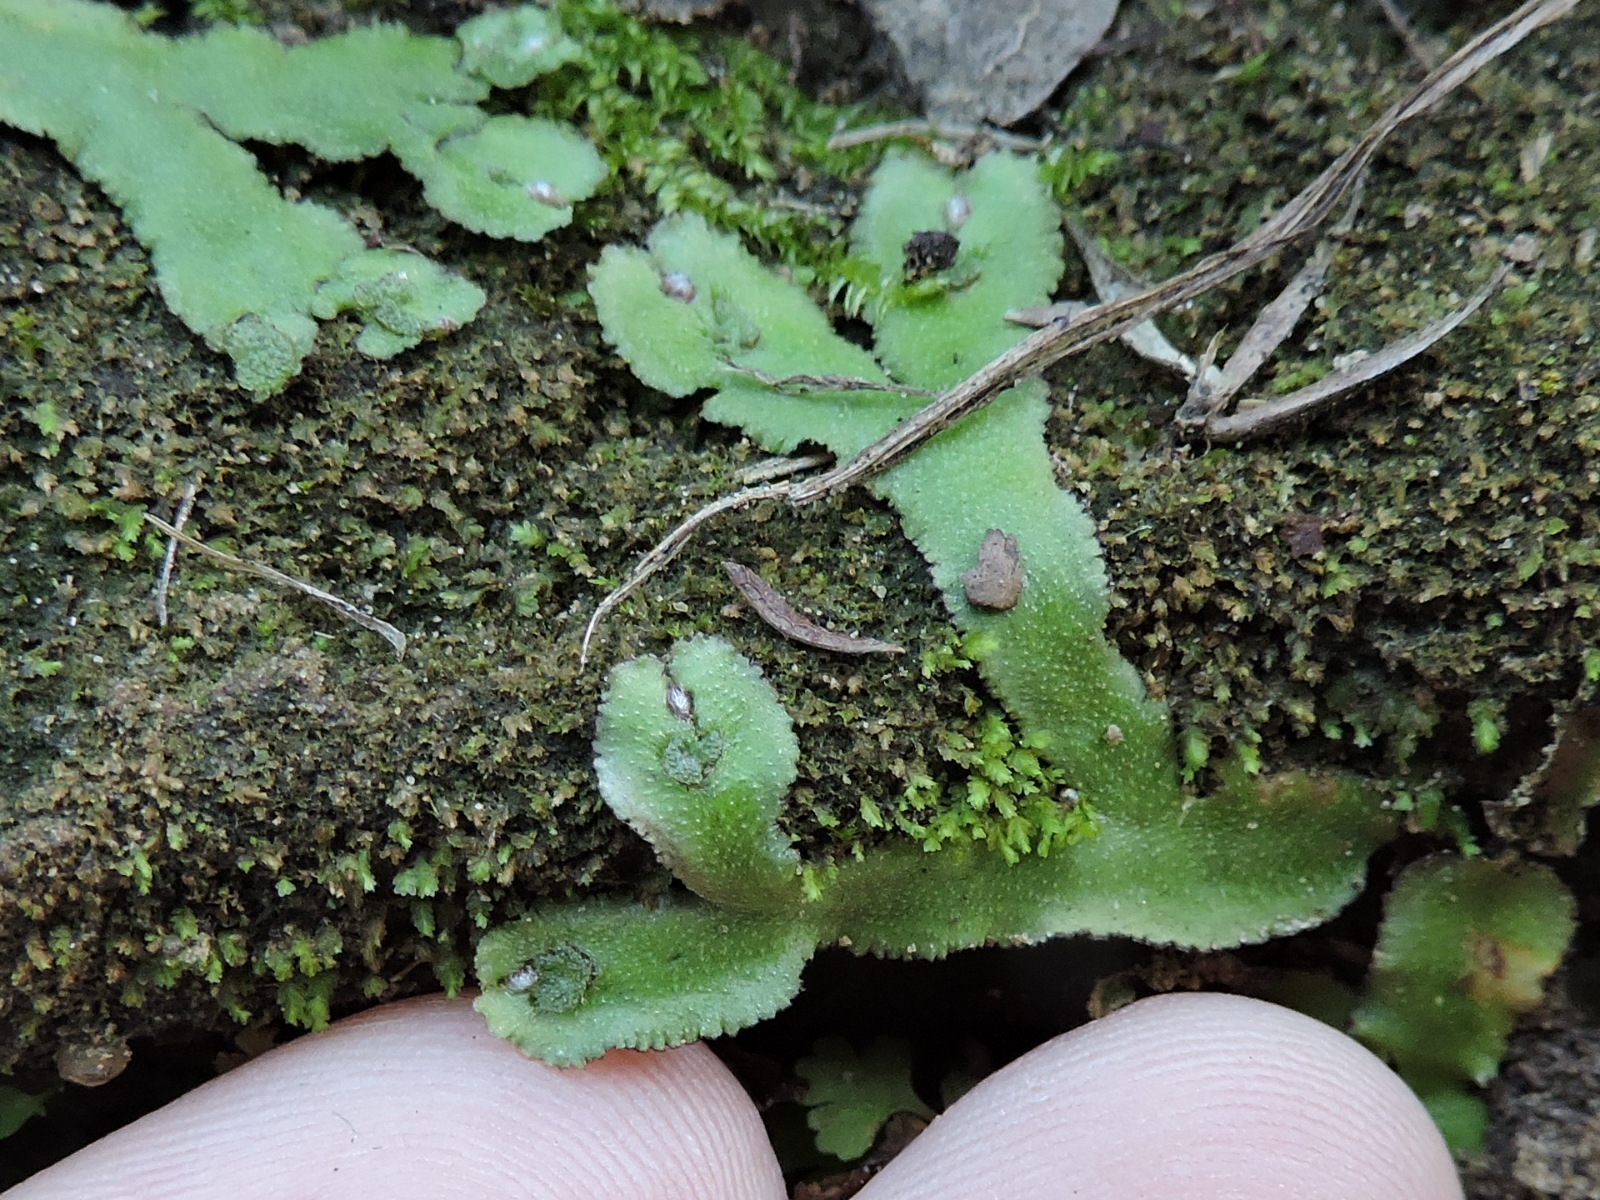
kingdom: Plantae
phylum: Marchantiophyta
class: Marchantiopsida
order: Marchantiales
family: Aytoniaceae
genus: Reboulia
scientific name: Reboulia hemisphaerica
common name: Purple-margined liverwort
